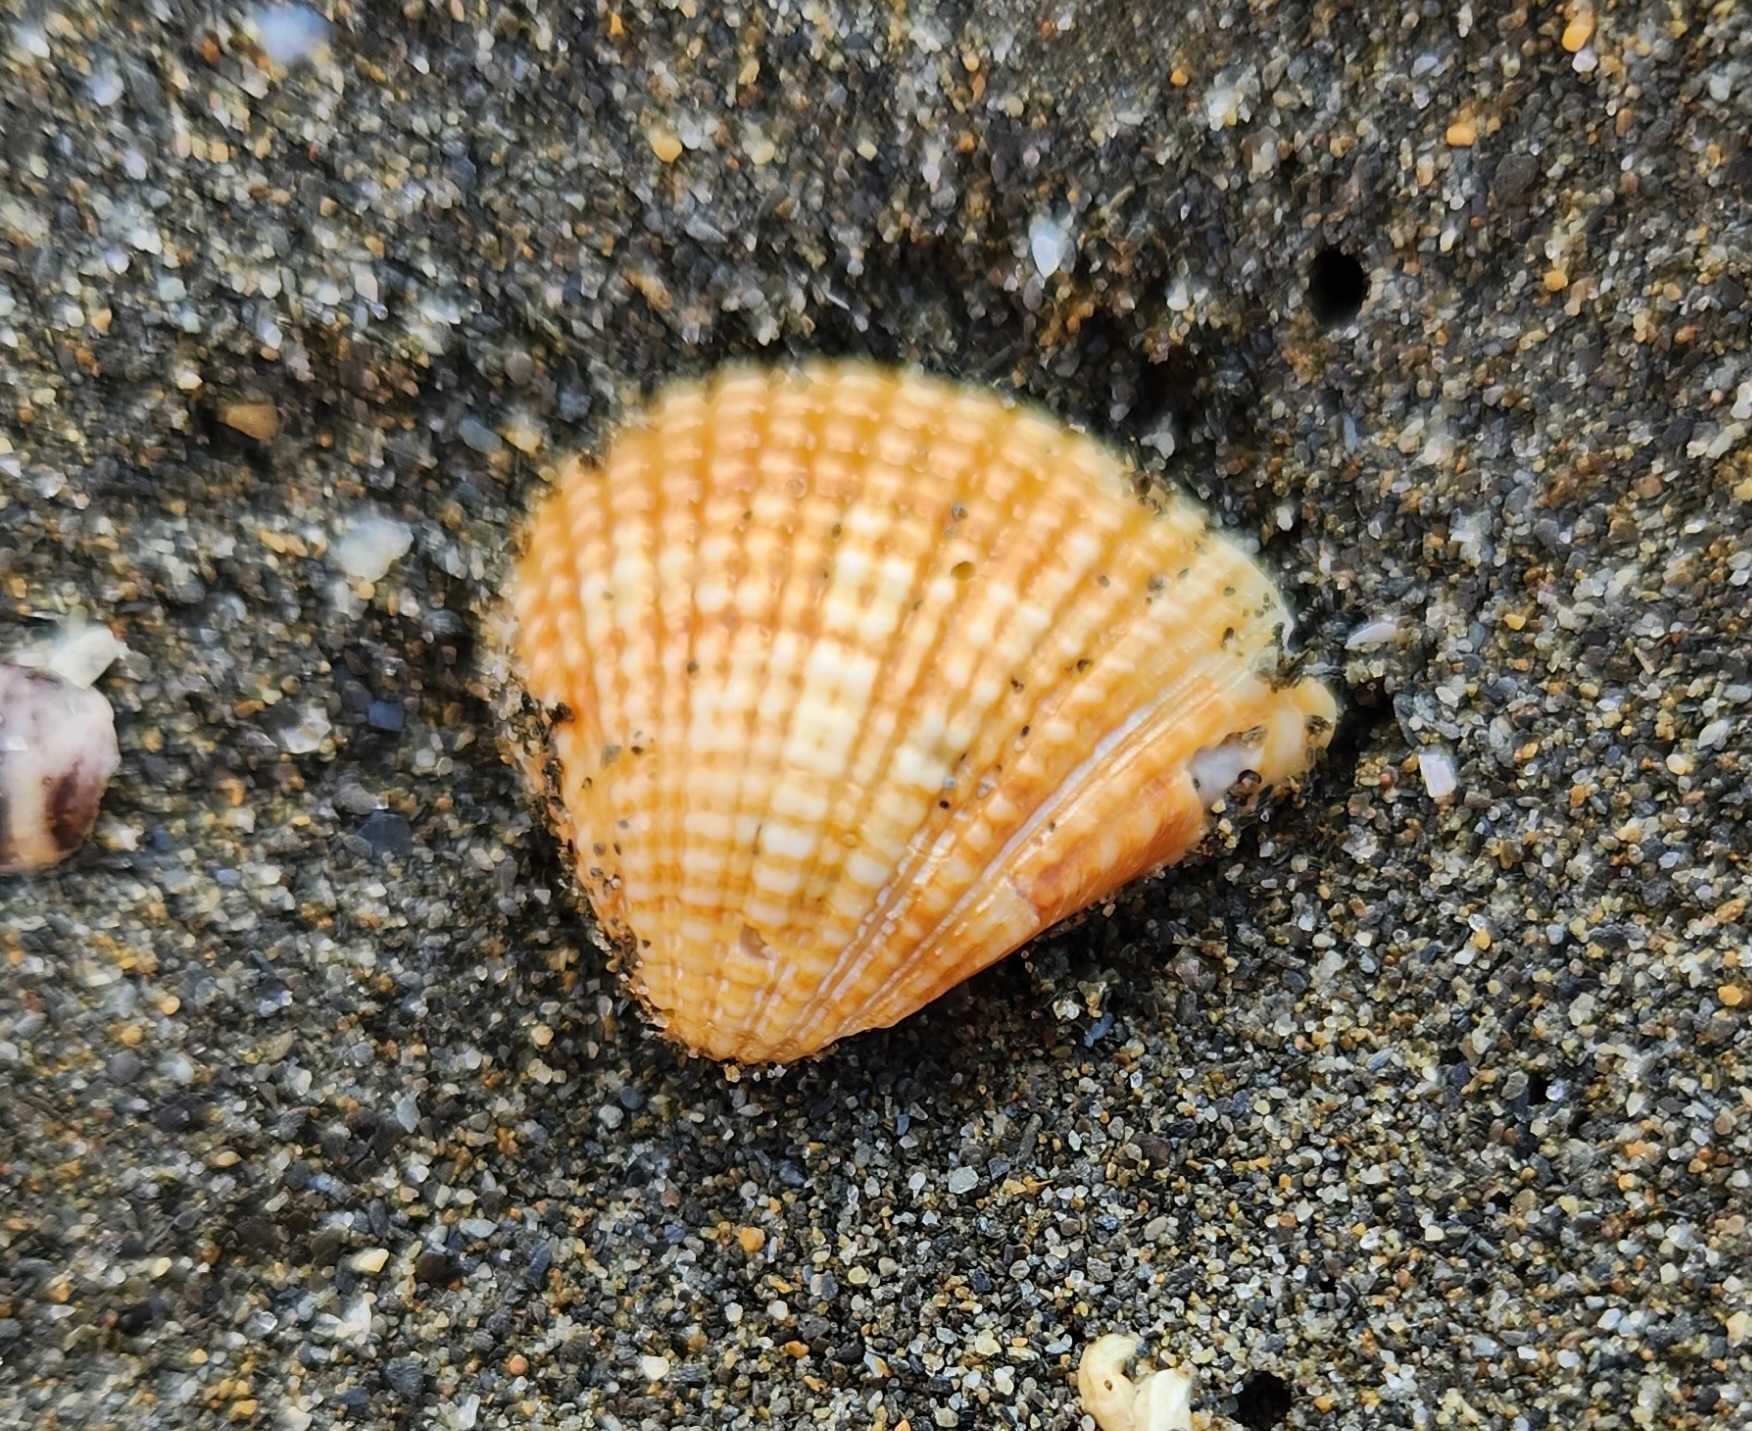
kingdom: Animalia
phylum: Mollusca
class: Bivalvia
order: Venerida
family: Veneridae
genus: Anomalodiscus
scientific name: Anomalodiscus squamosus
